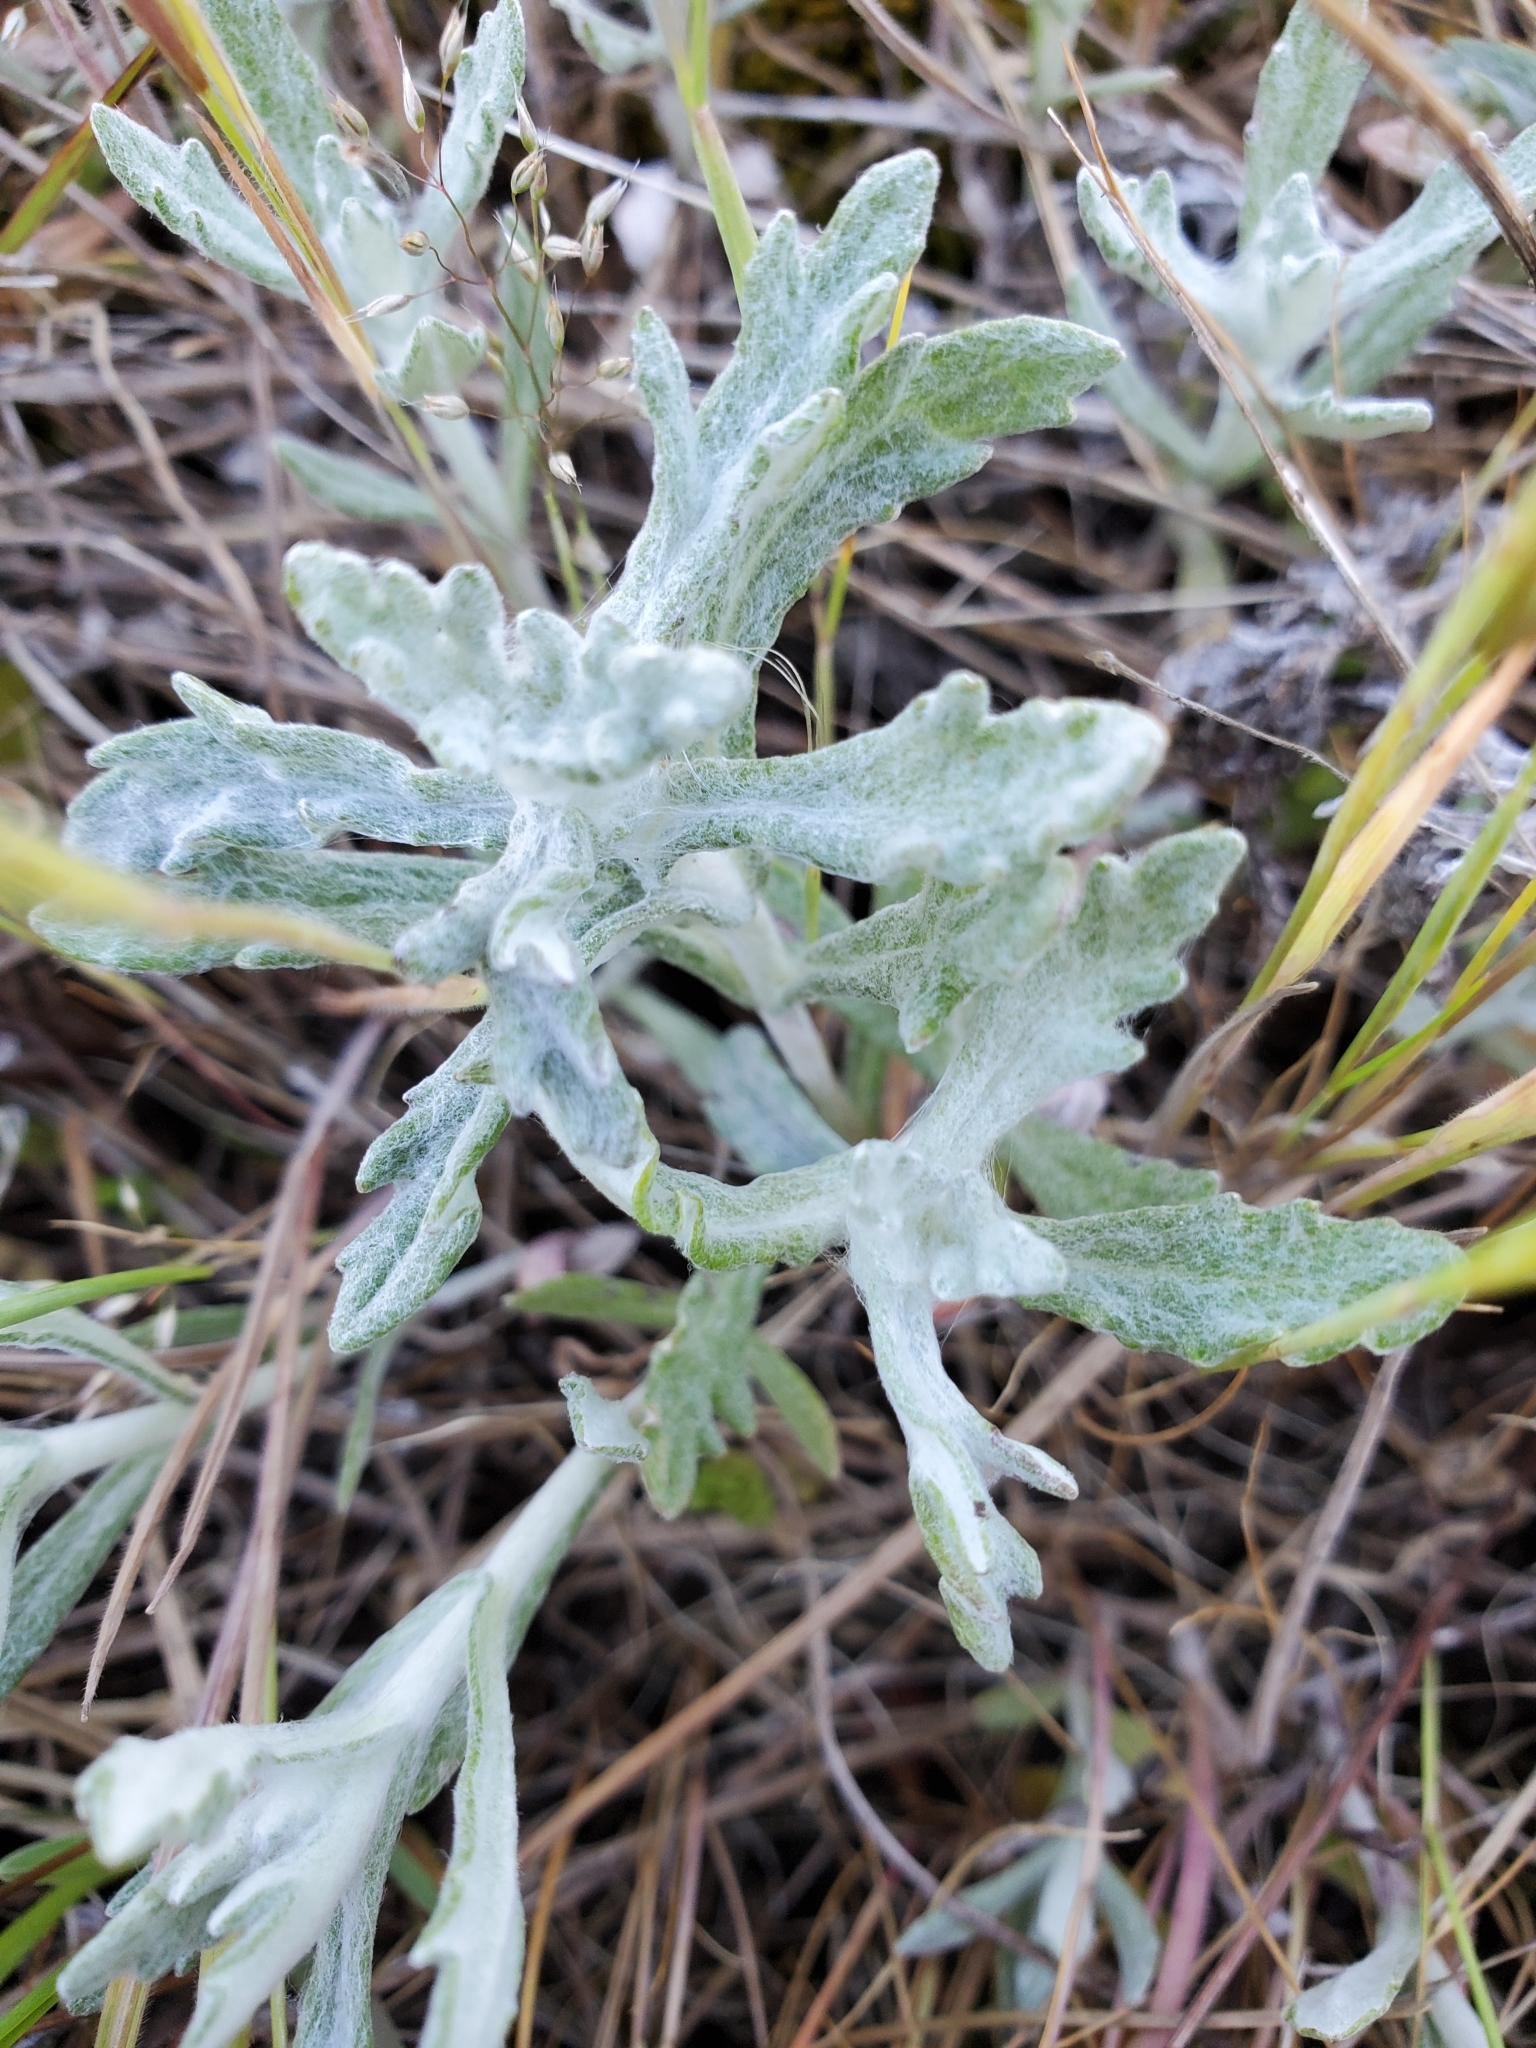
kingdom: Plantae
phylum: Tracheophyta
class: Magnoliopsida
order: Asterales
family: Asteraceae
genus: Eriophyllum
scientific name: Eriophyllum lanatum
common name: Common woolly-sunflower
